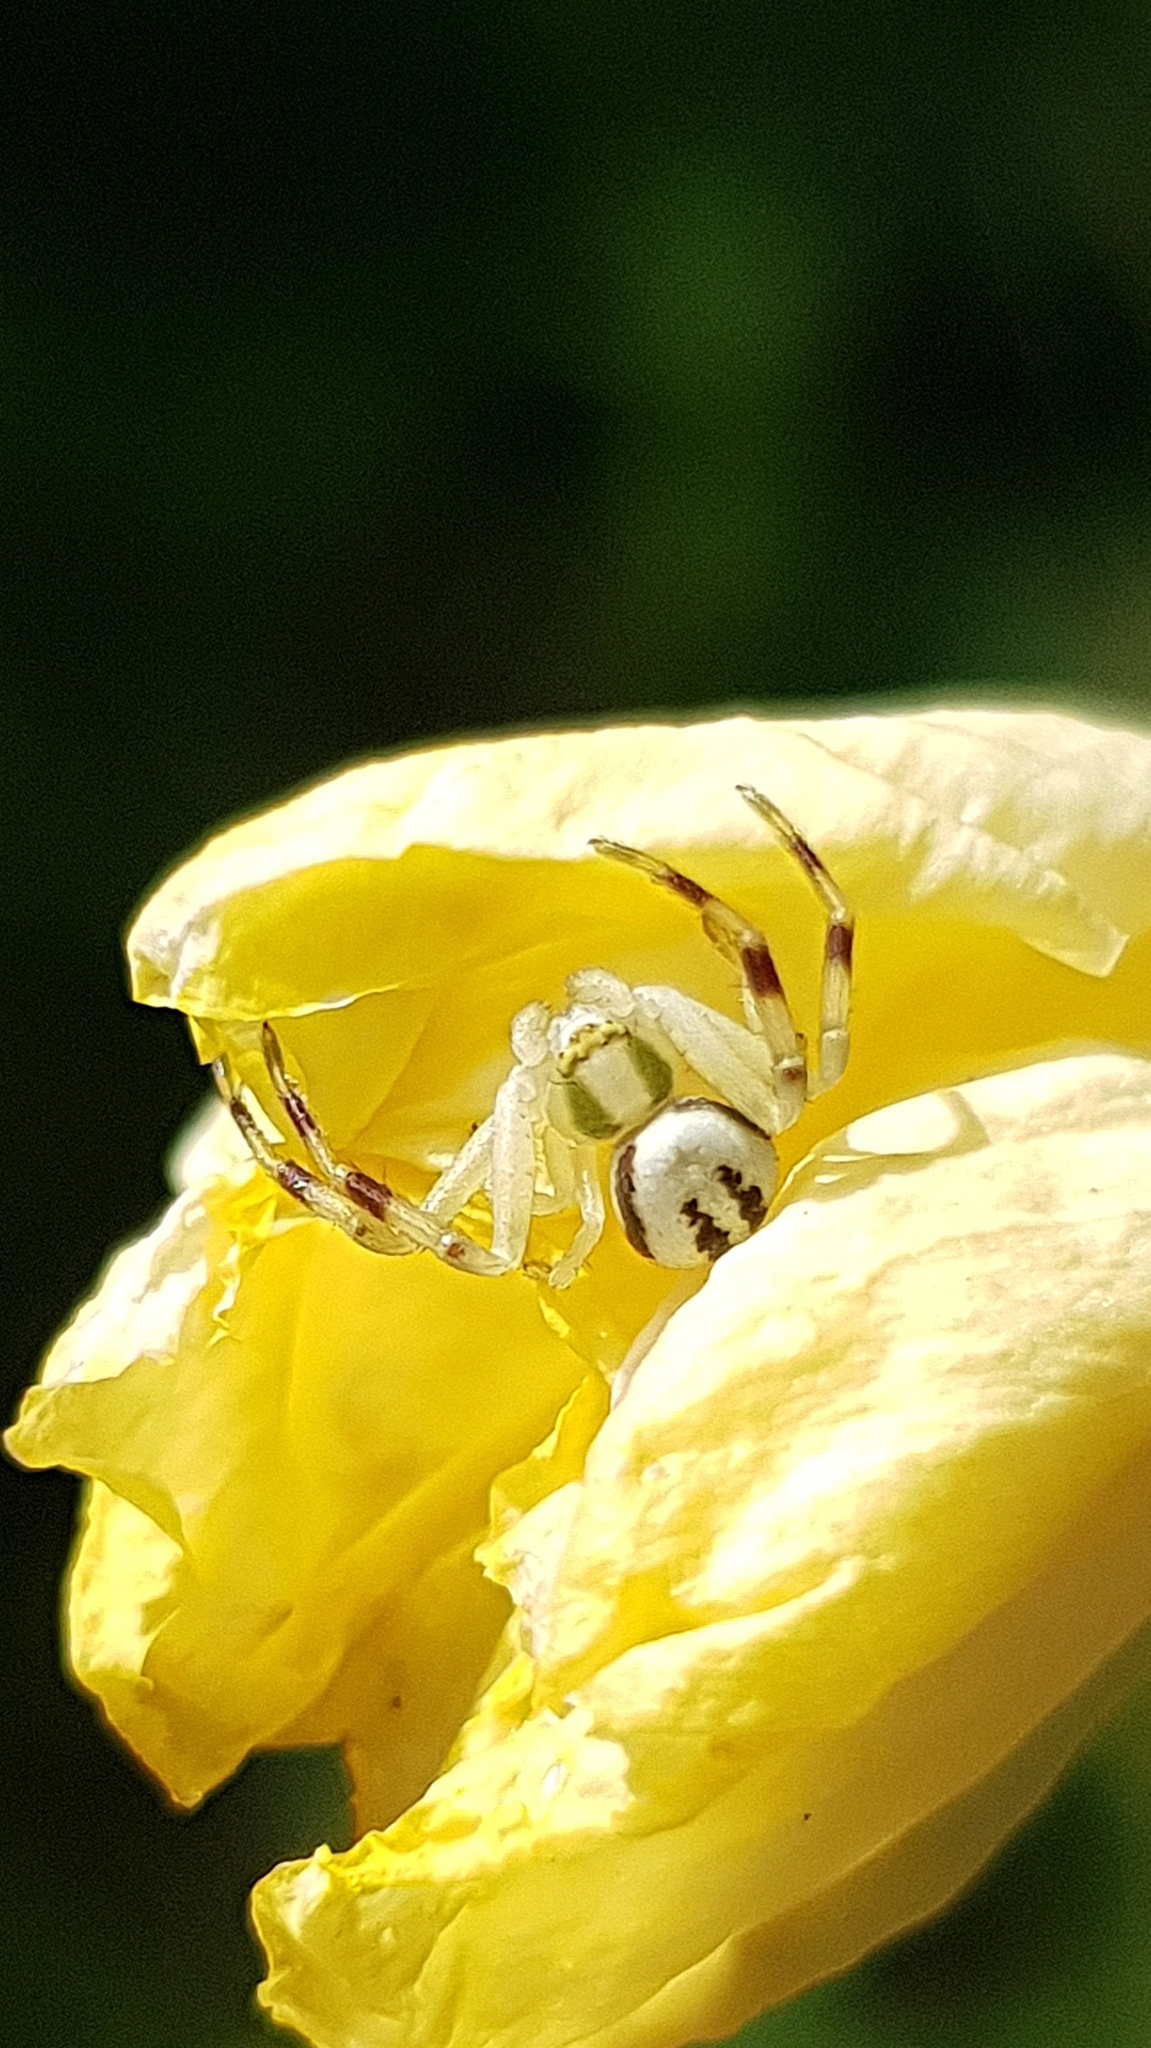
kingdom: Animalia
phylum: Arthropoda
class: Arachnida
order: Araneae
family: Thomisidae
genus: Misumena
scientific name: Misumena vatia
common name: Goldenrod crab spider
